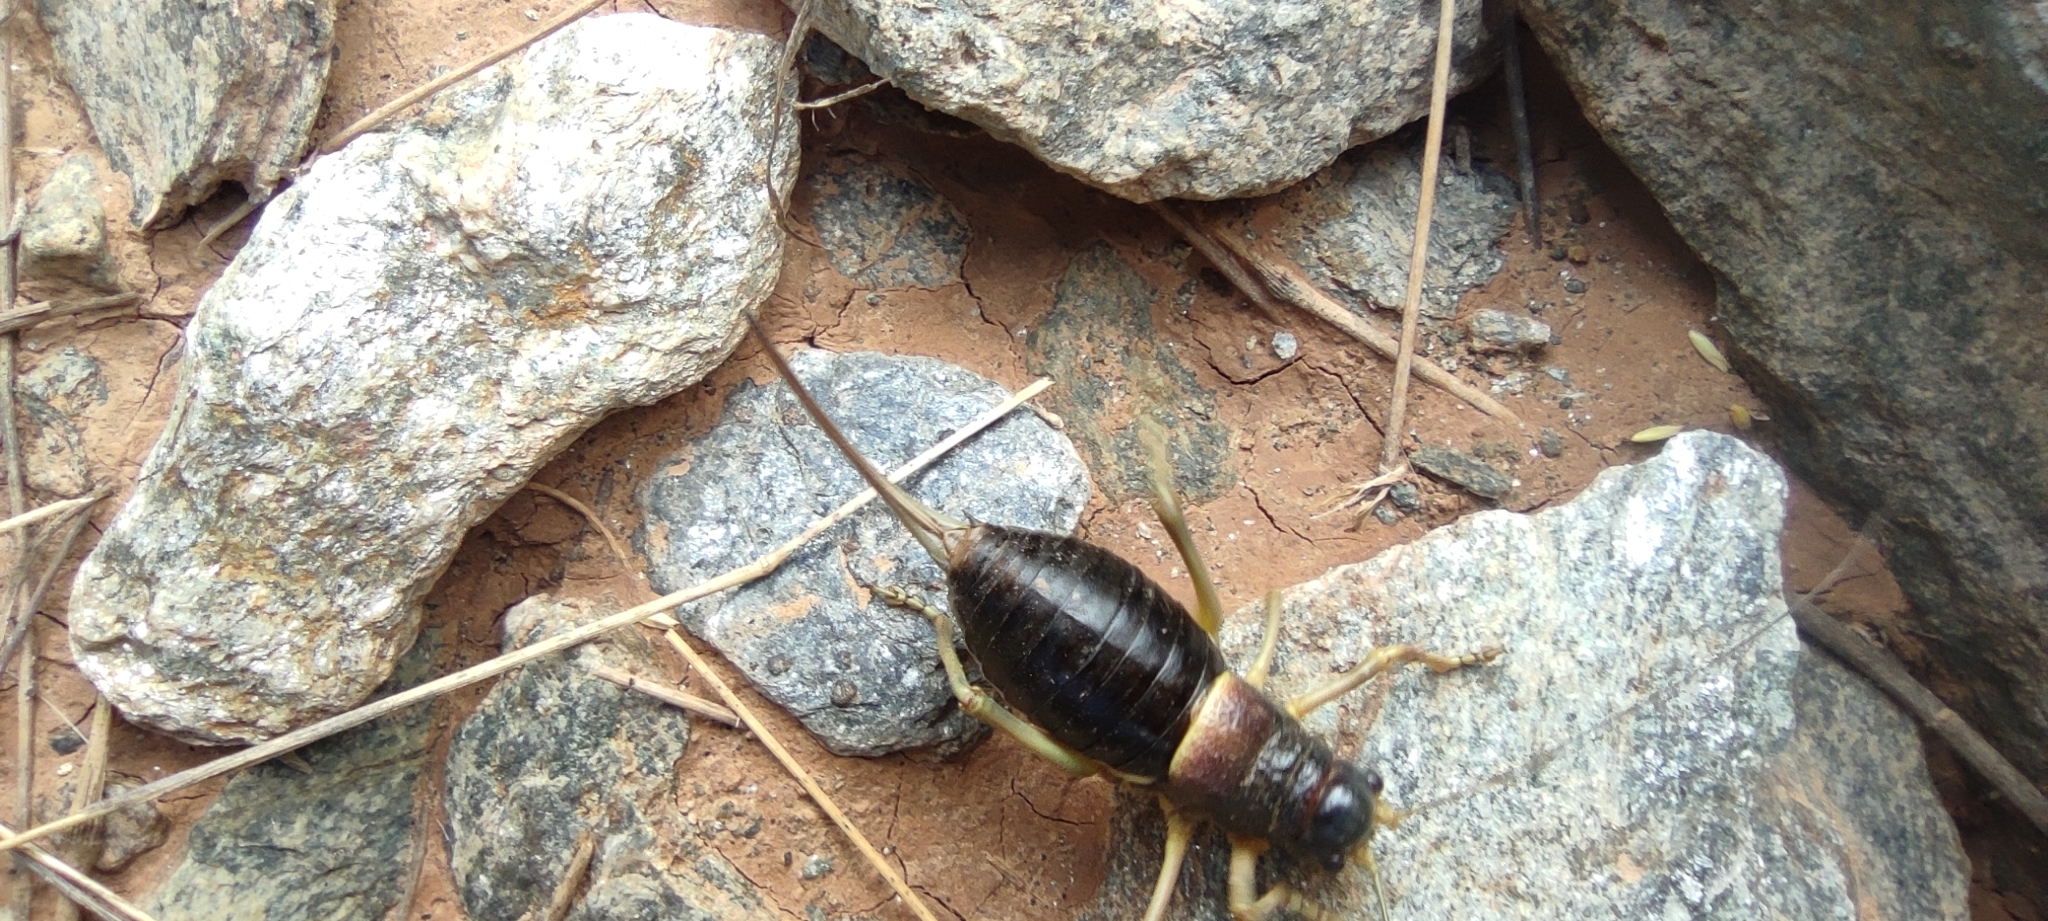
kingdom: Animalia
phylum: Arthropoda
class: Insecta
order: Orthoptera
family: Tettigoniidae
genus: Baetica
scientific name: Baetica ustulata
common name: Sierra nevadan saddle bush-cricket
